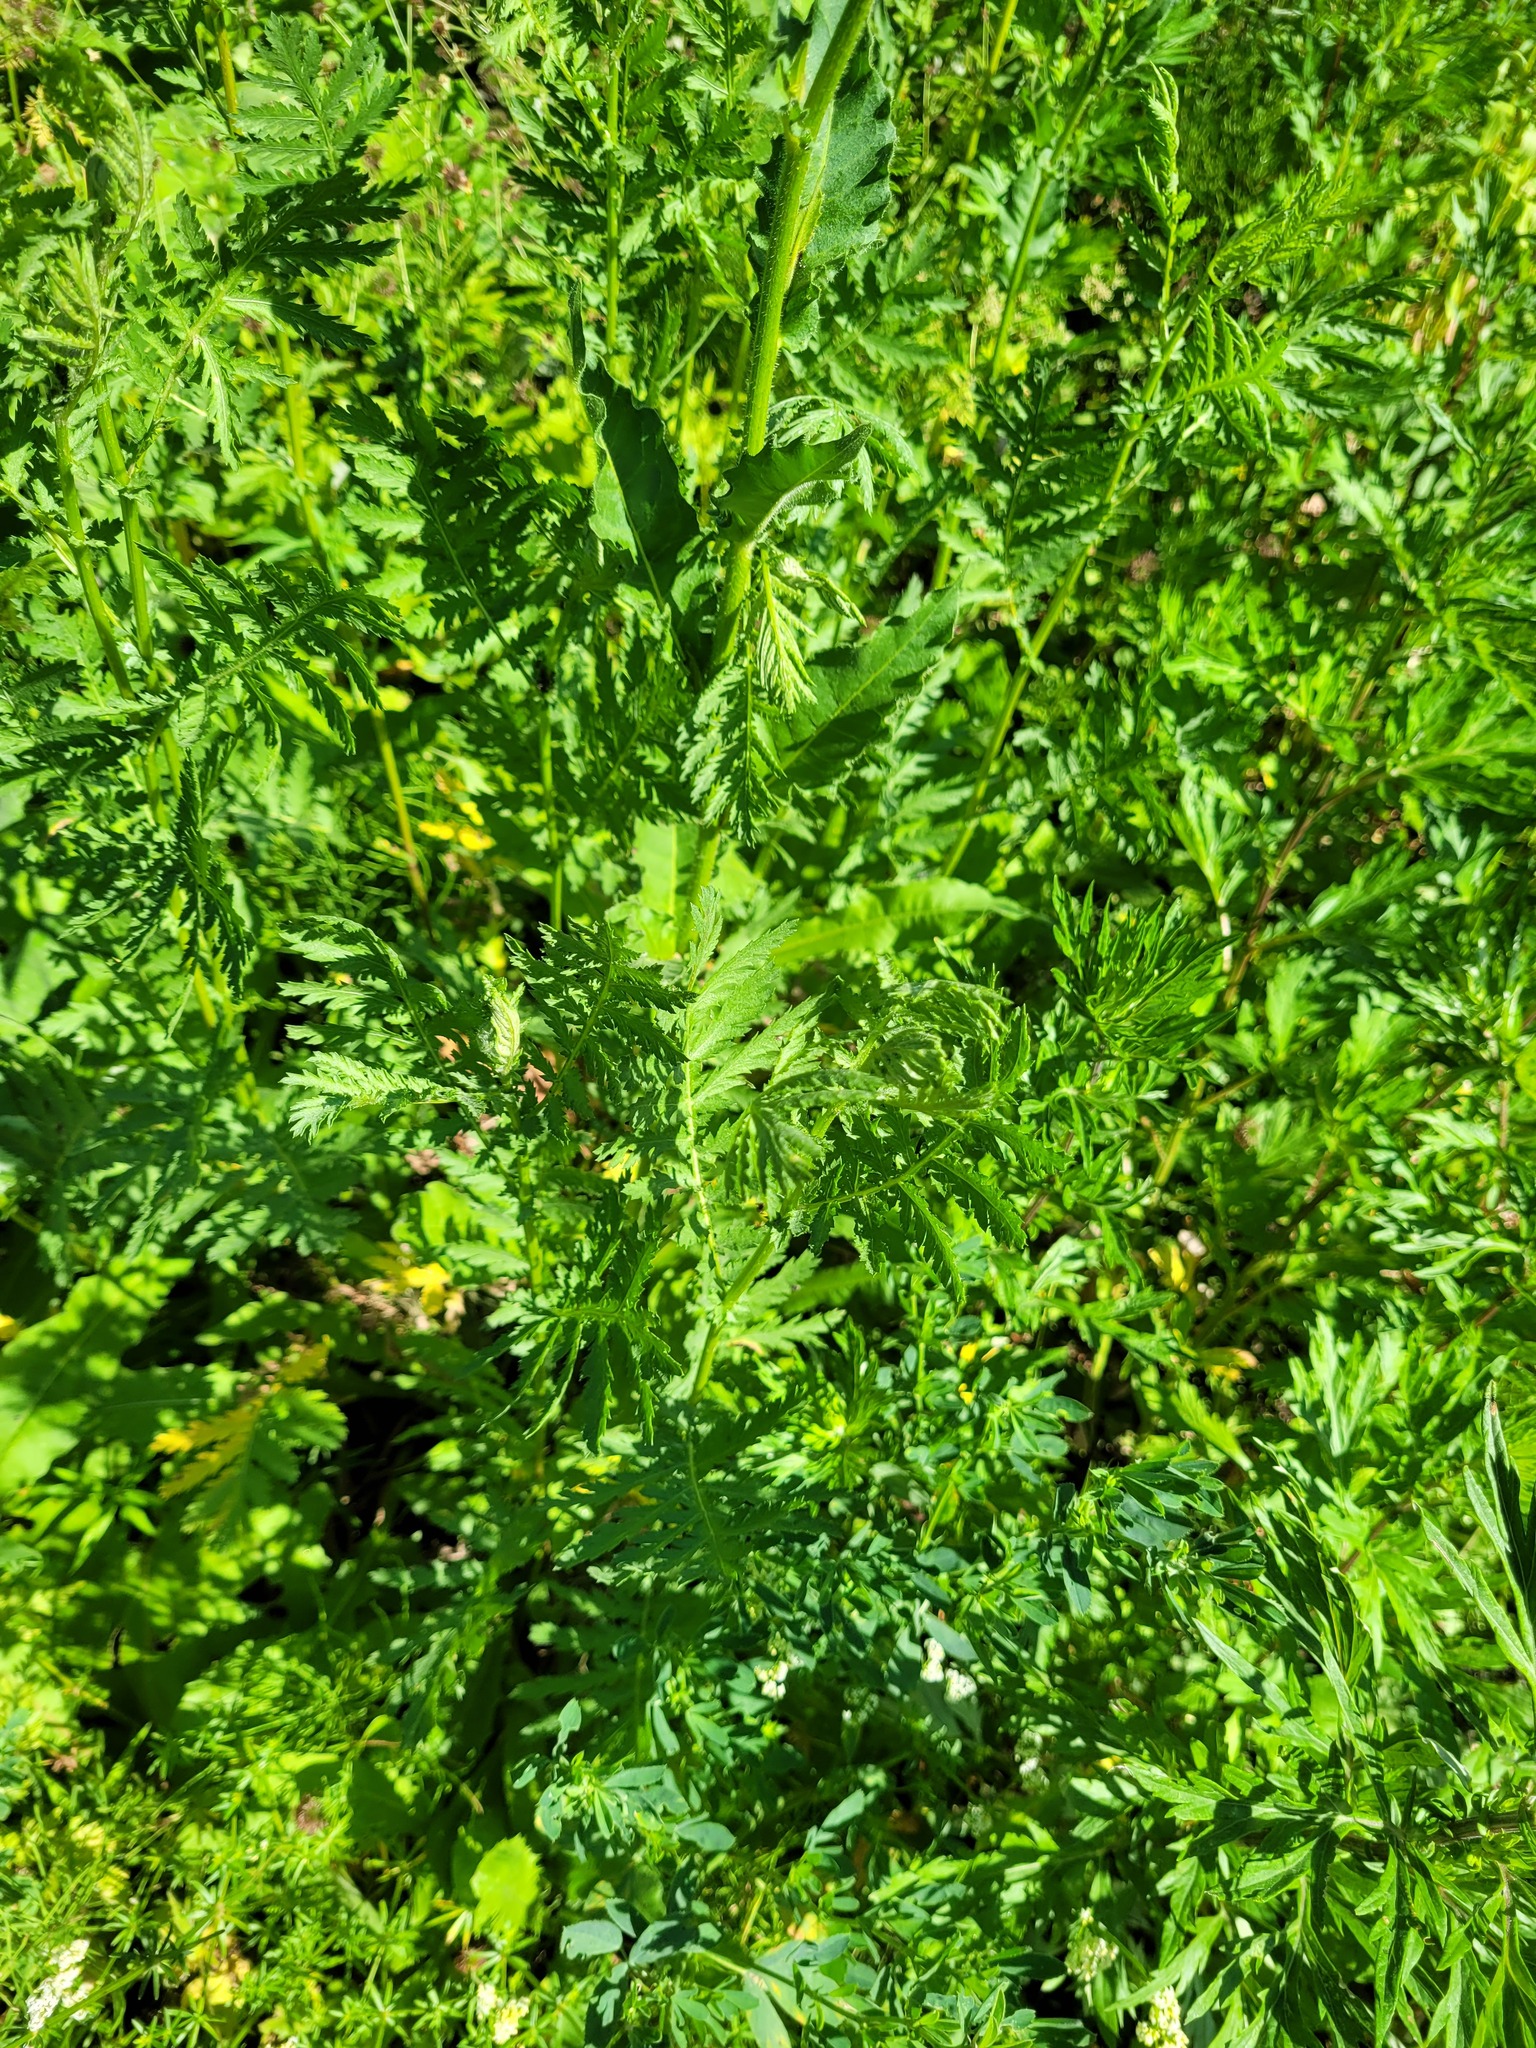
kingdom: Plantae
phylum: Tracheophyta
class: Magnoliopsida
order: Asterales
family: Asteraceae
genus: Tanacetum
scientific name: Tanacetum vulgare
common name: Common tansy
